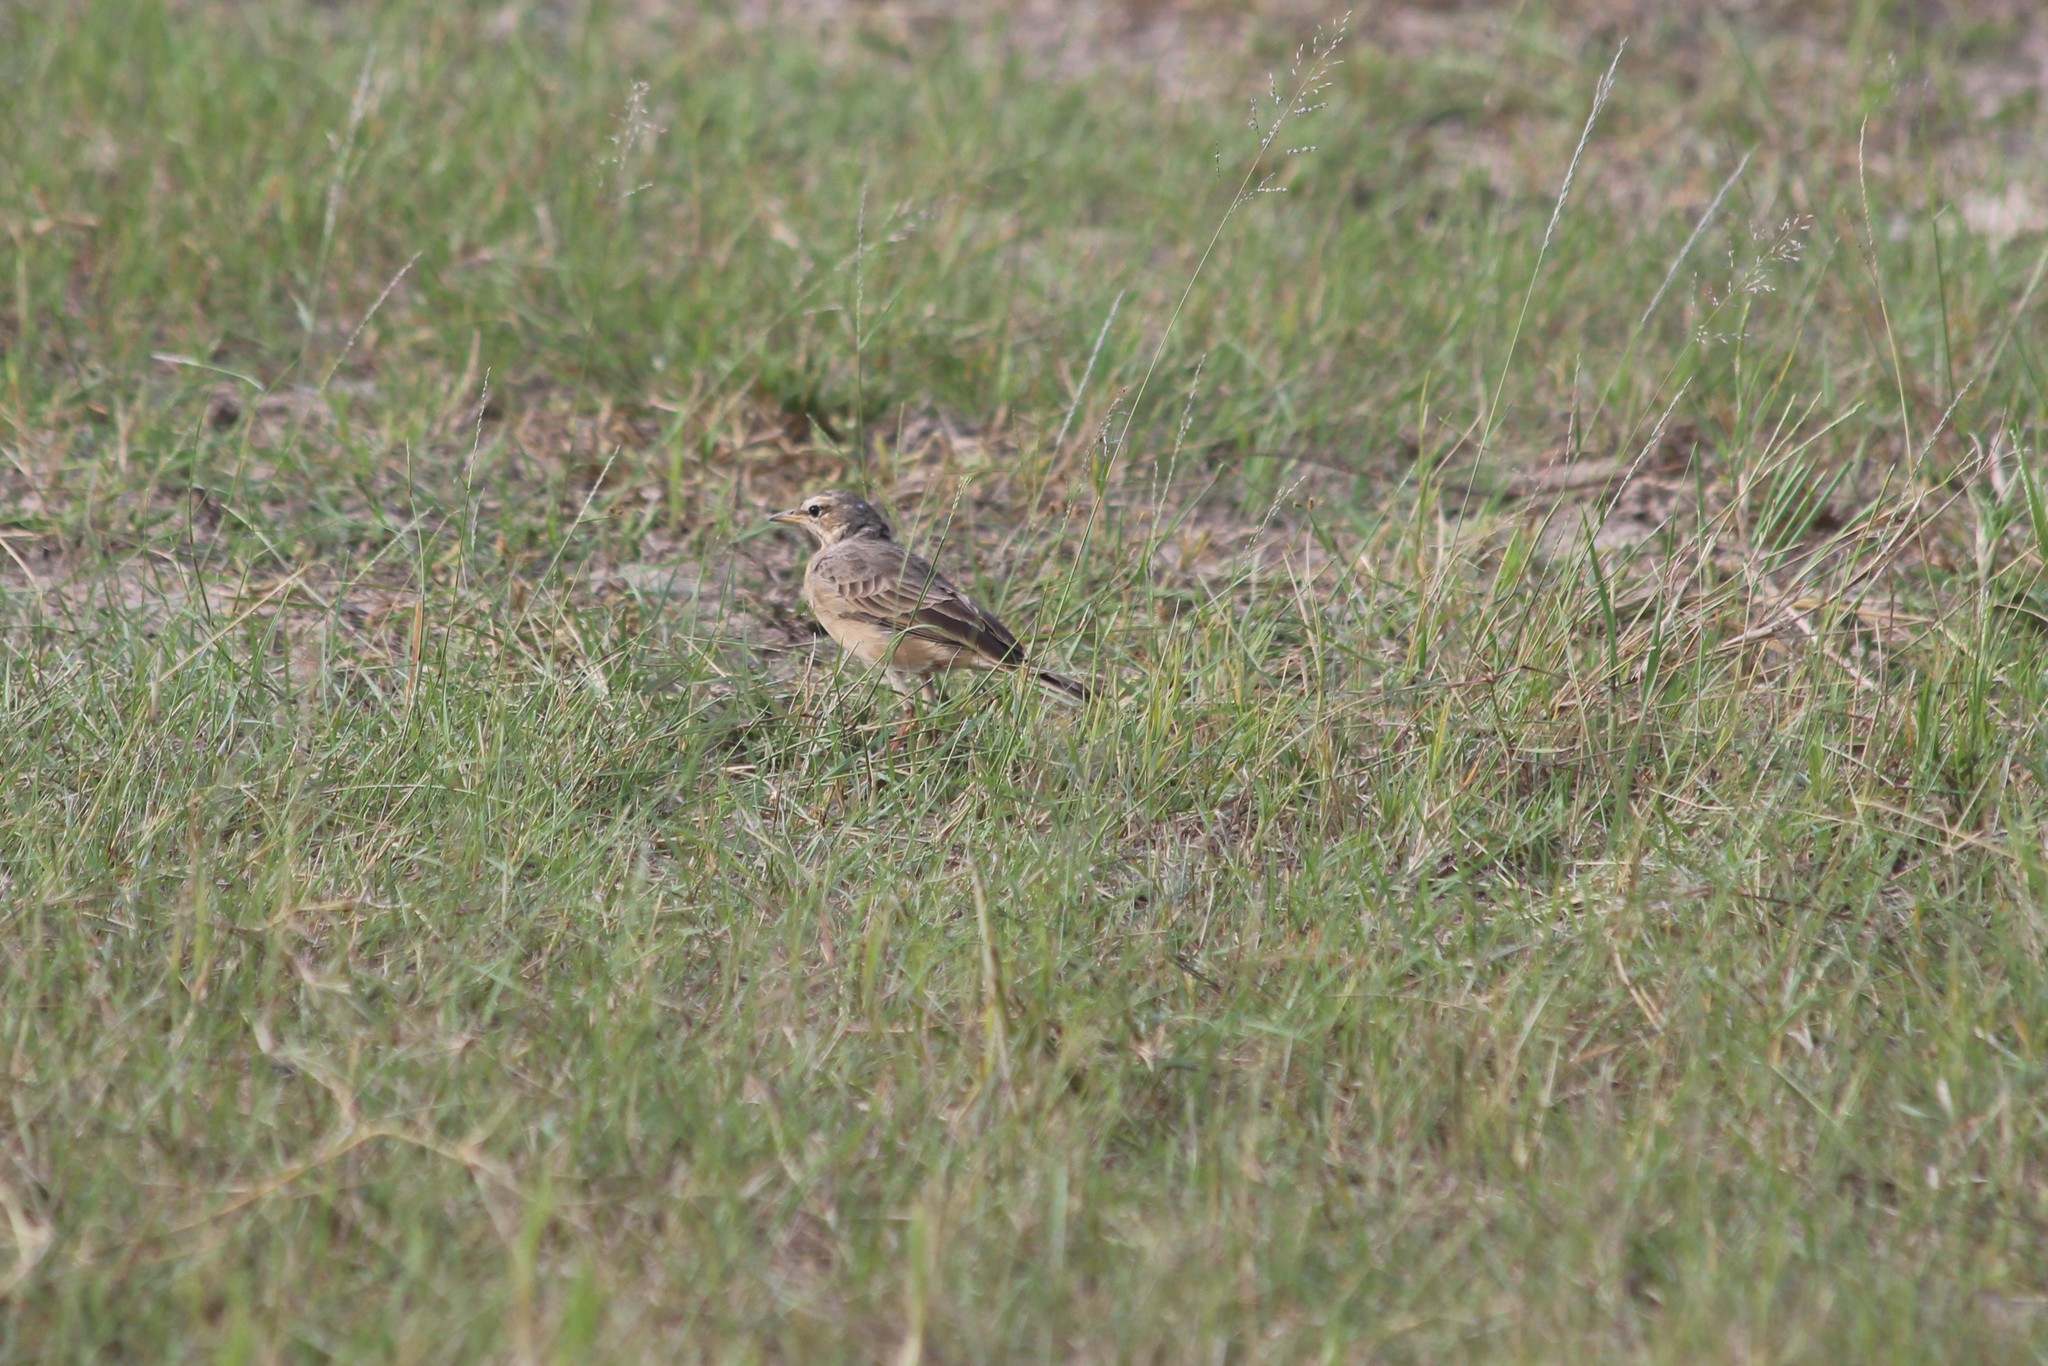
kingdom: Animalia
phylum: Chordata
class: Aves
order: Passeriformes
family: Motacillidae
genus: Anthus
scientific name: Anthus leucophrys
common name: Plain-backed pipit
